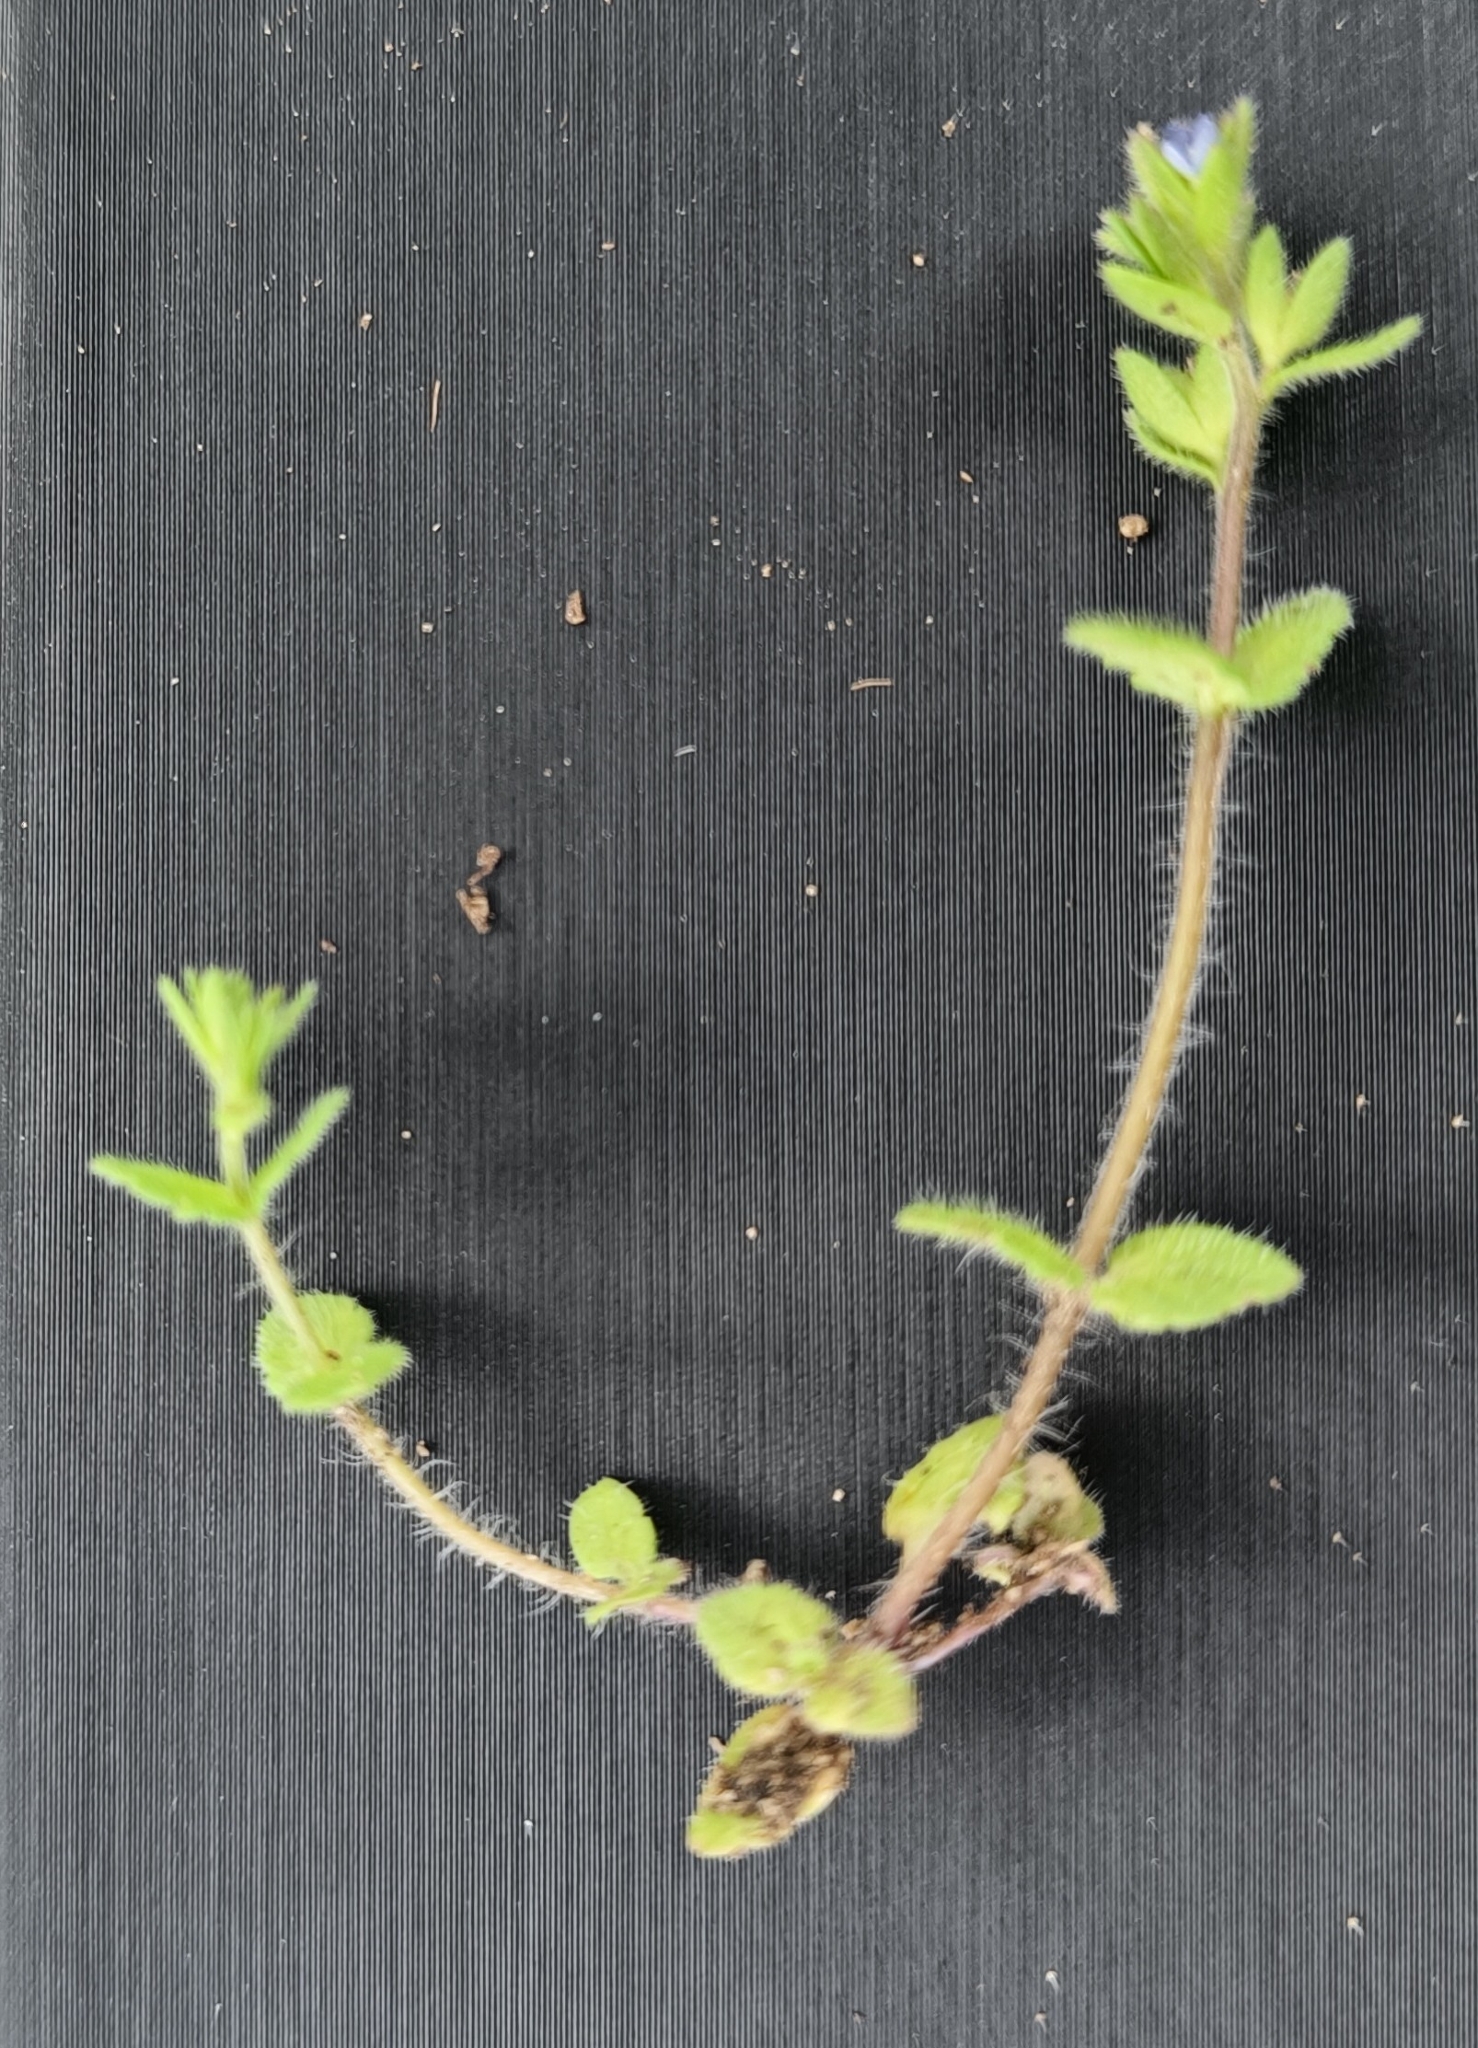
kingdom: Plantae
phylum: Tracheophyta
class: Magnoliopsida
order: Lamiales
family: Plantaginaceae
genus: Veronica
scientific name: Veronica arvensis
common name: Corn speedwell
